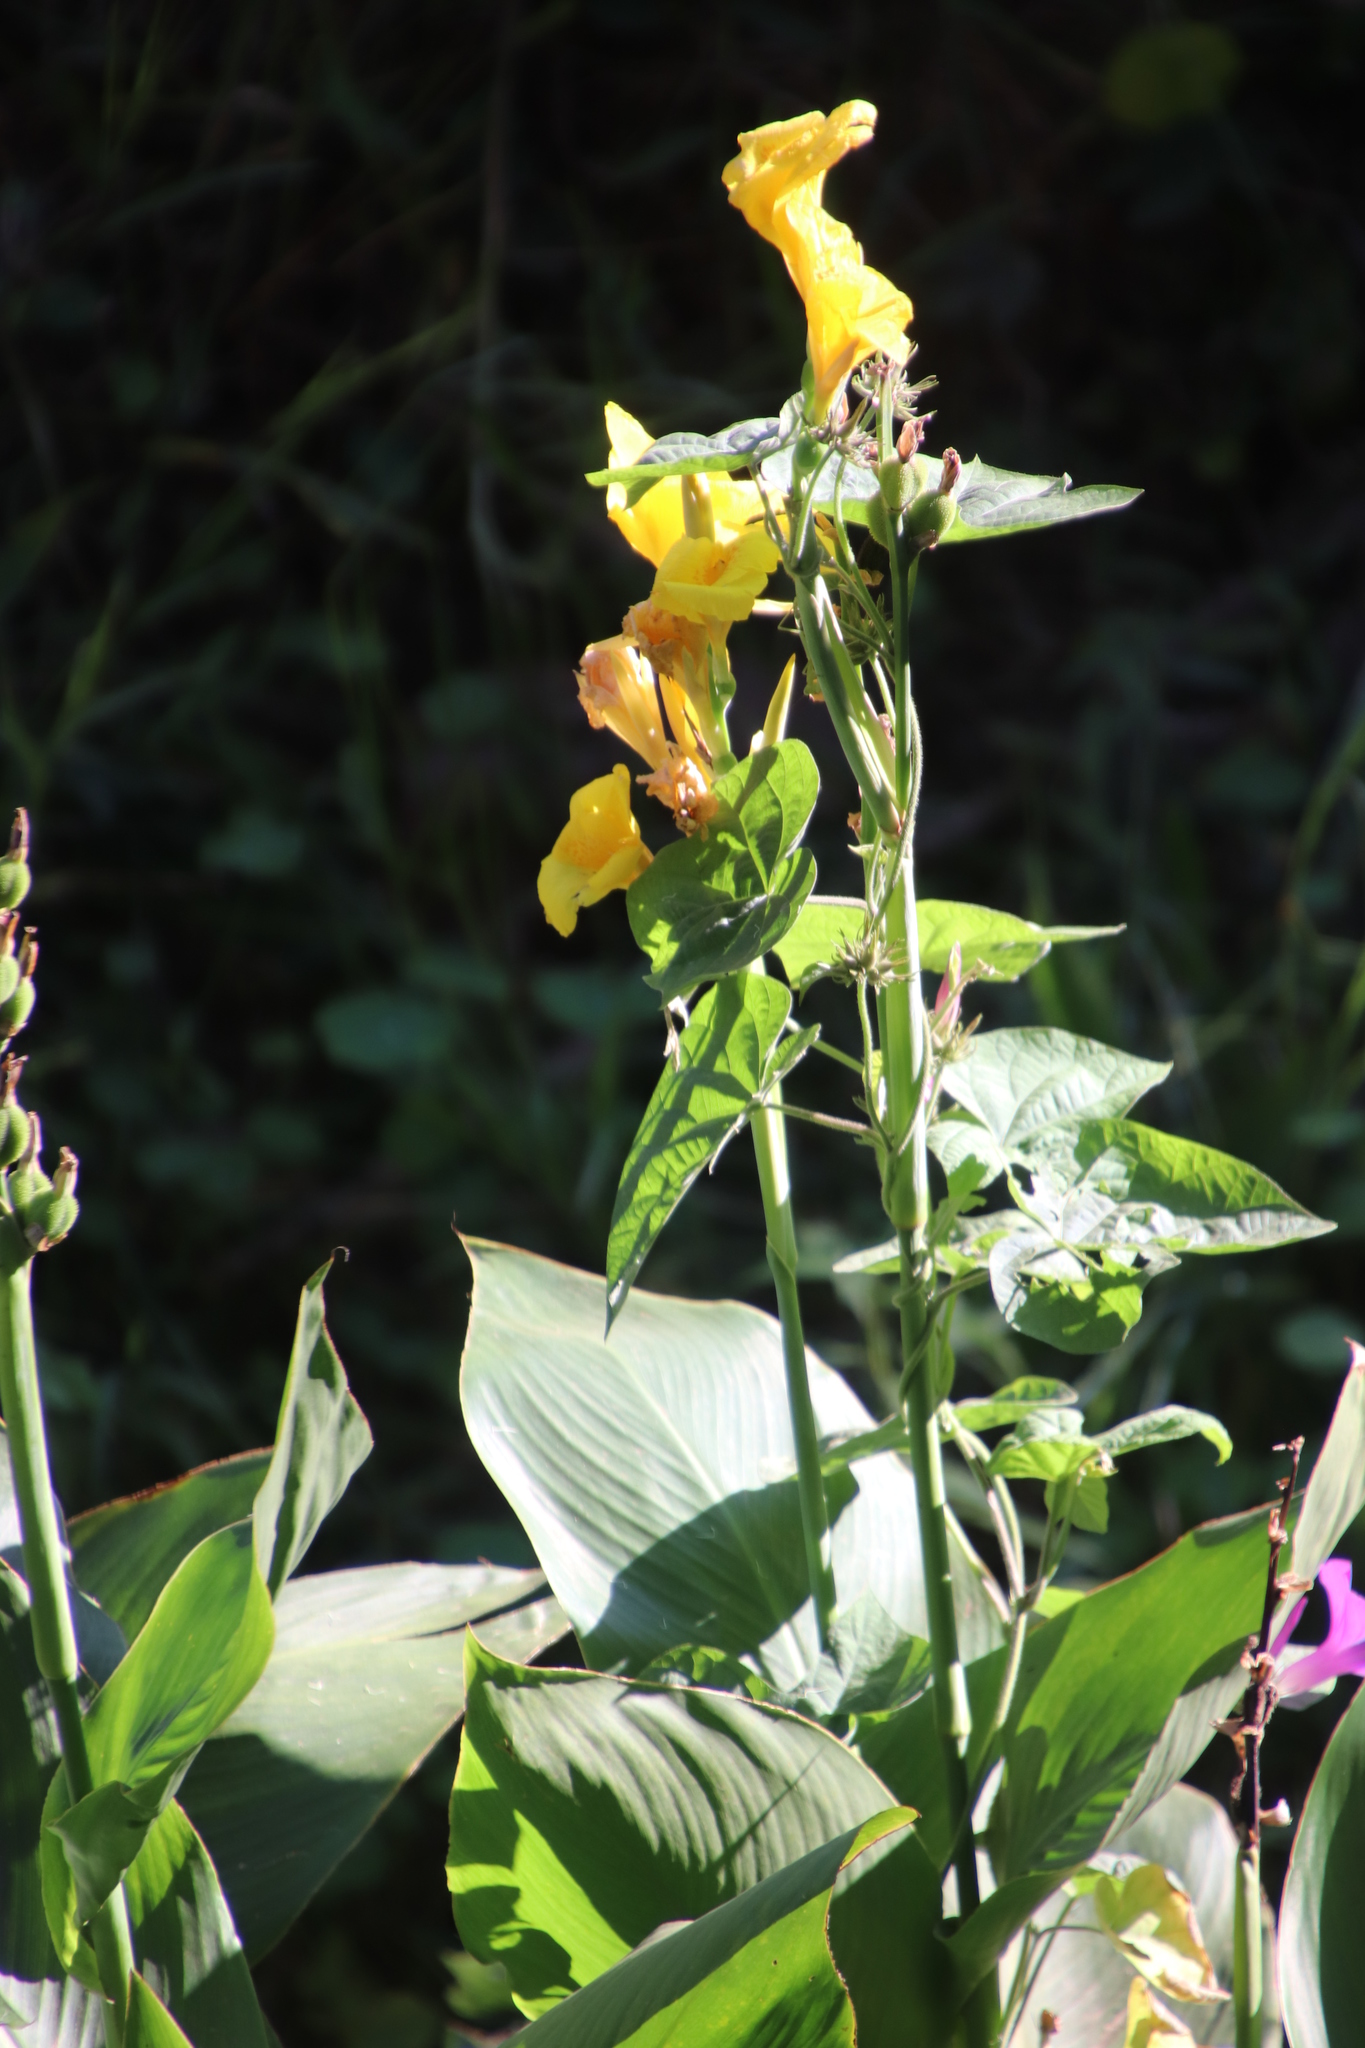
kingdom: Plantae
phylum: Tracheophyta
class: Liliopsida
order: Zingiberales
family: Cannaceae
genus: Canna
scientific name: Canna hybrida
